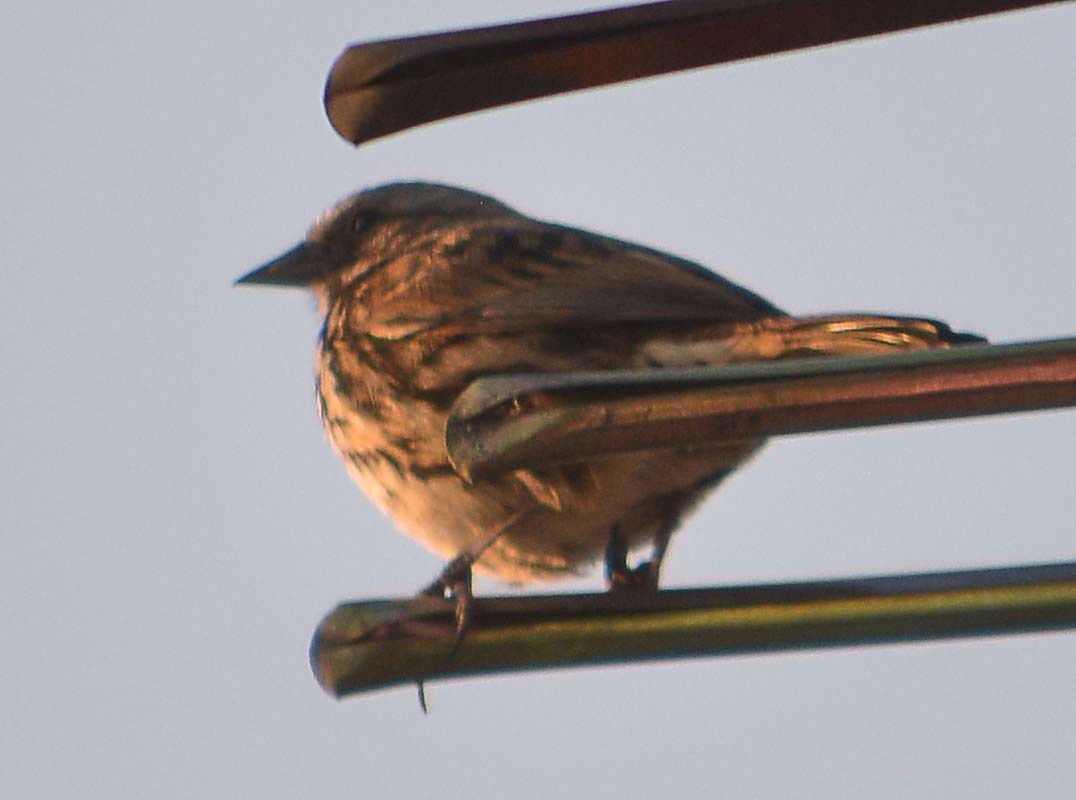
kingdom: Animalia
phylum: Chordata
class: Aves
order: Passeriformes
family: Passerellidae
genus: Melospiza
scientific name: Melospiza melodia
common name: Song sparrow
